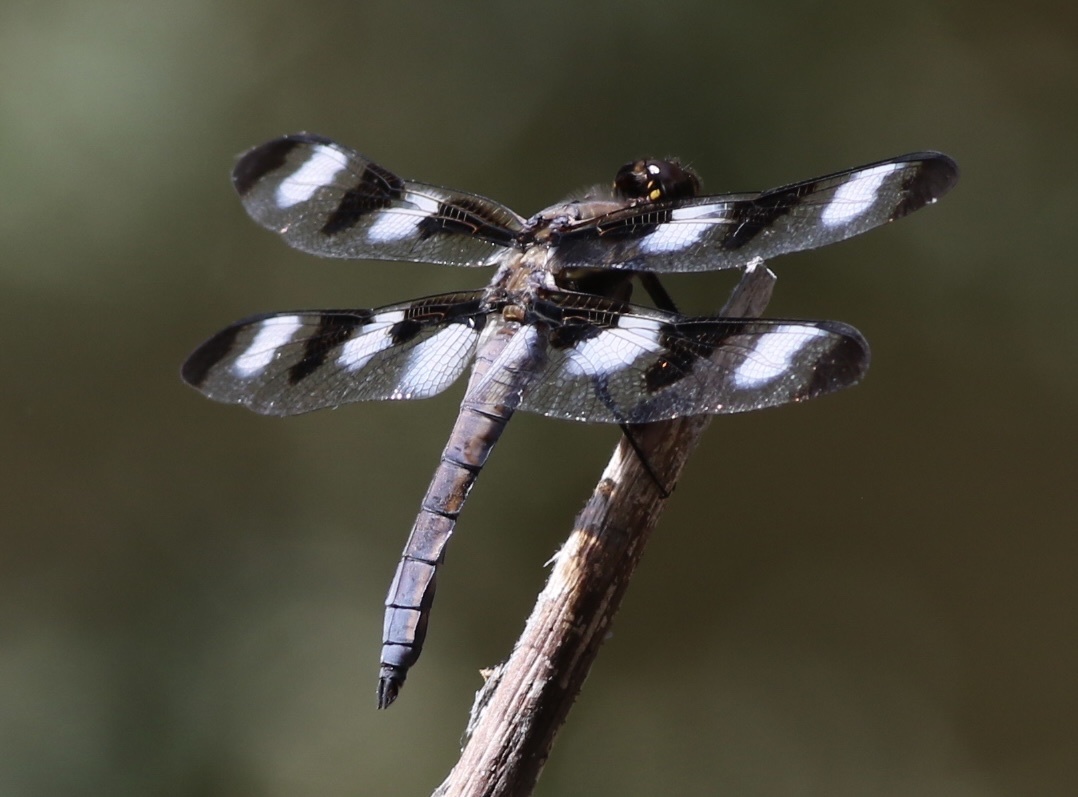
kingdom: Animalia
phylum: Arthropoda
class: Insecta
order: Odonata
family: Libellulidae
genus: Libellula
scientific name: Libellula pulchella
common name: Twelve-spotted skimmer
